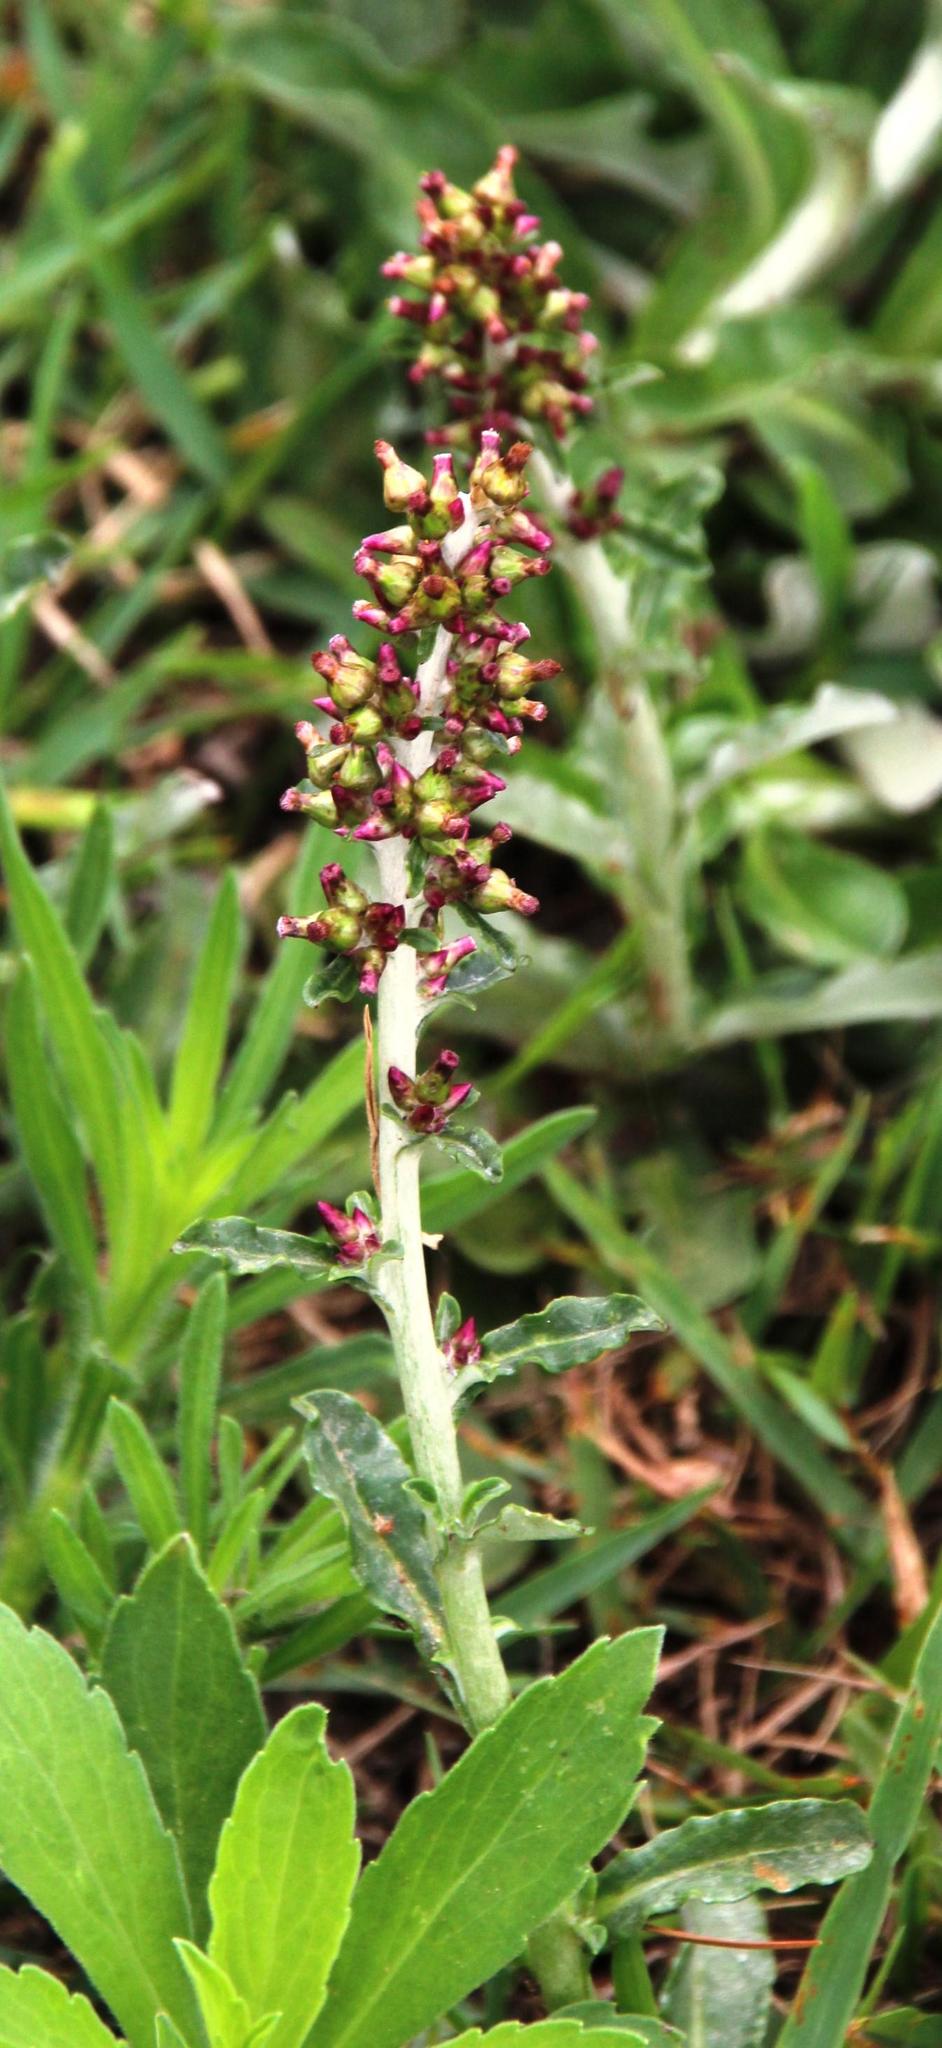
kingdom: Plantae
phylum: Tracheophyta
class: Magnoliopsida
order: Asterales
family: Asteraceae
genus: Gamochaeta
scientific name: Gamochaeta americana
